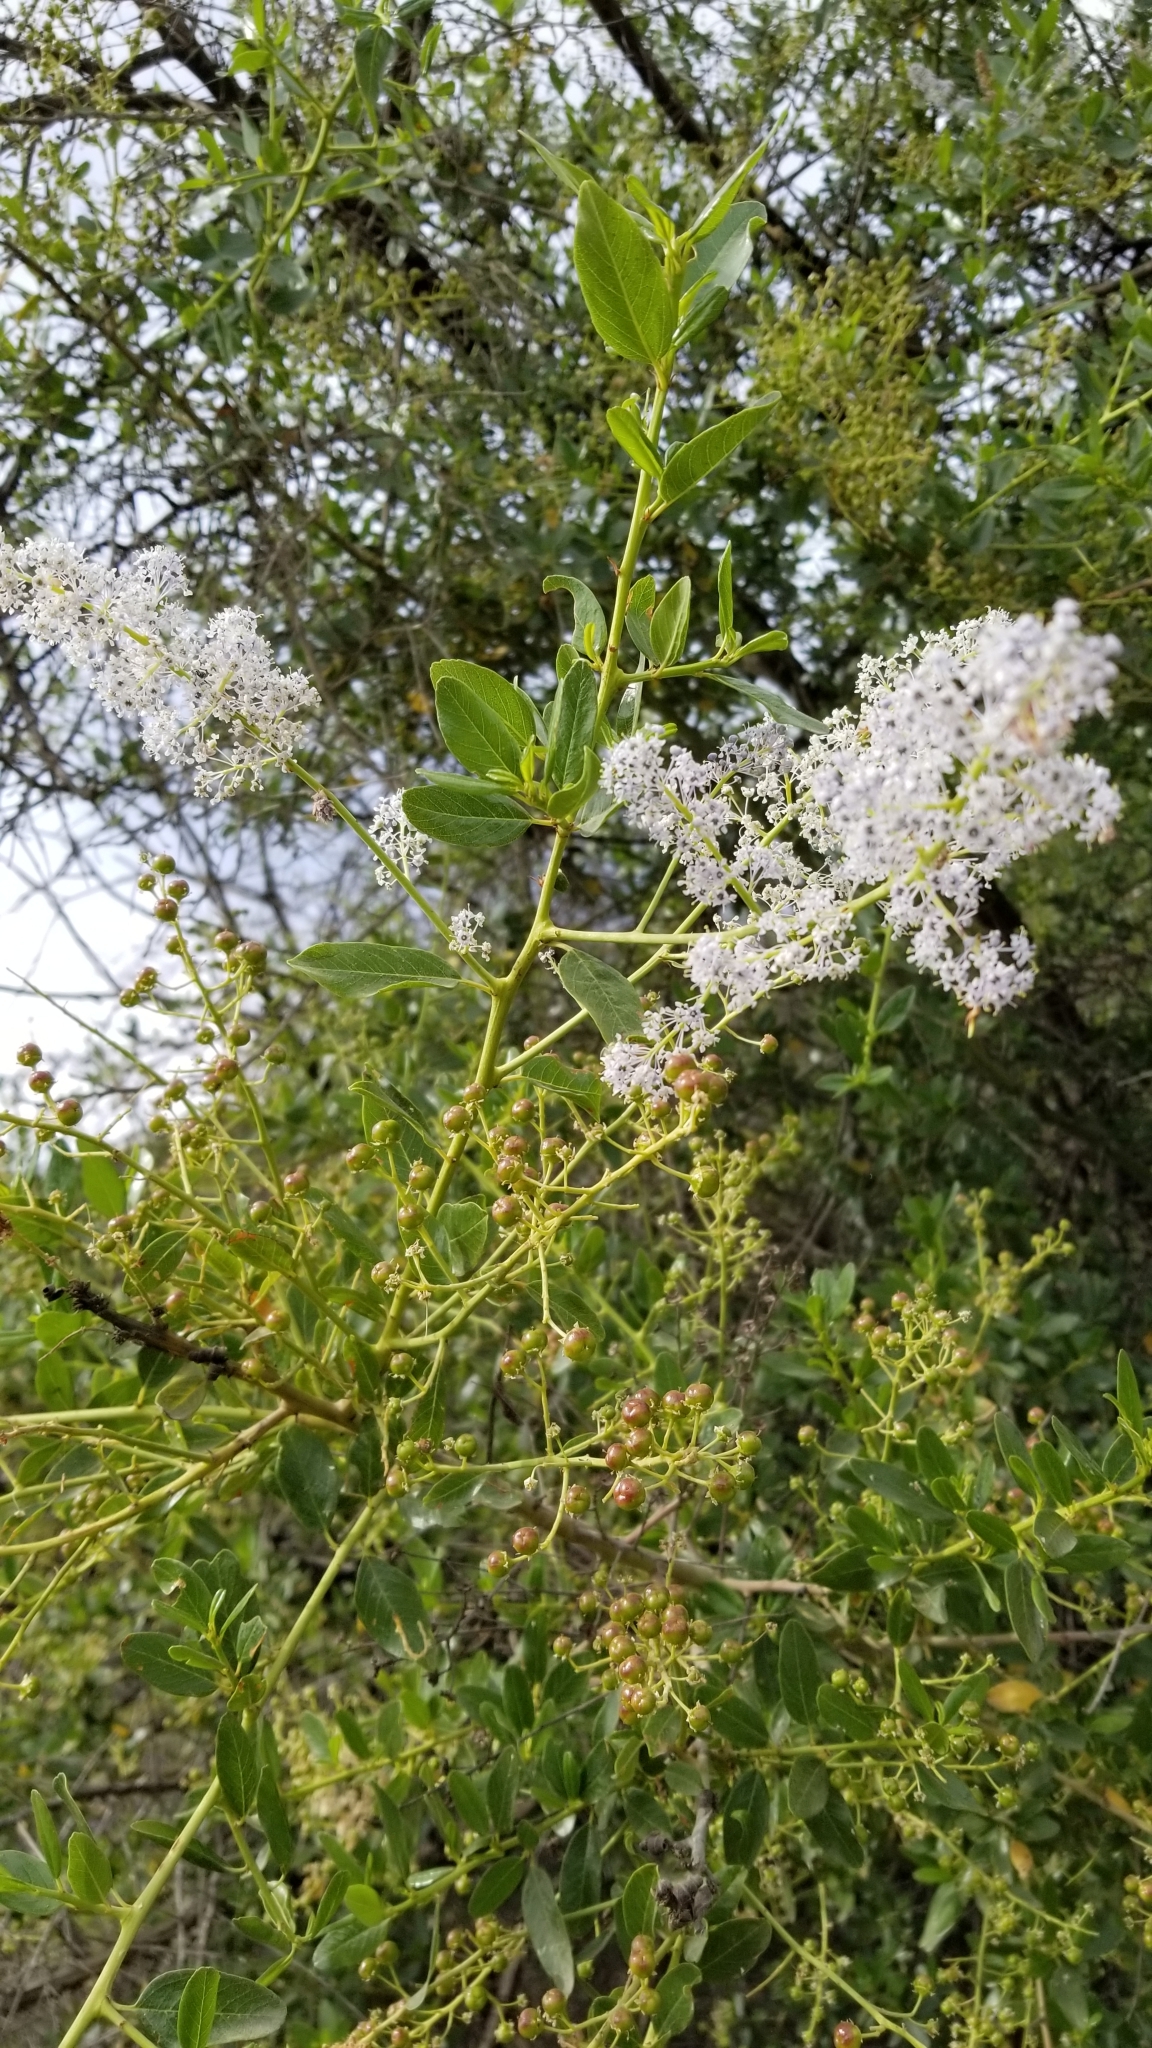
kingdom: Plantae
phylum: Tracheophyta
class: Magnoliopsida
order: Rosales
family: Rhamnaceae
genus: Ceanothus
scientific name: Ceanothus spinosus
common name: Greenbark whitethorn
